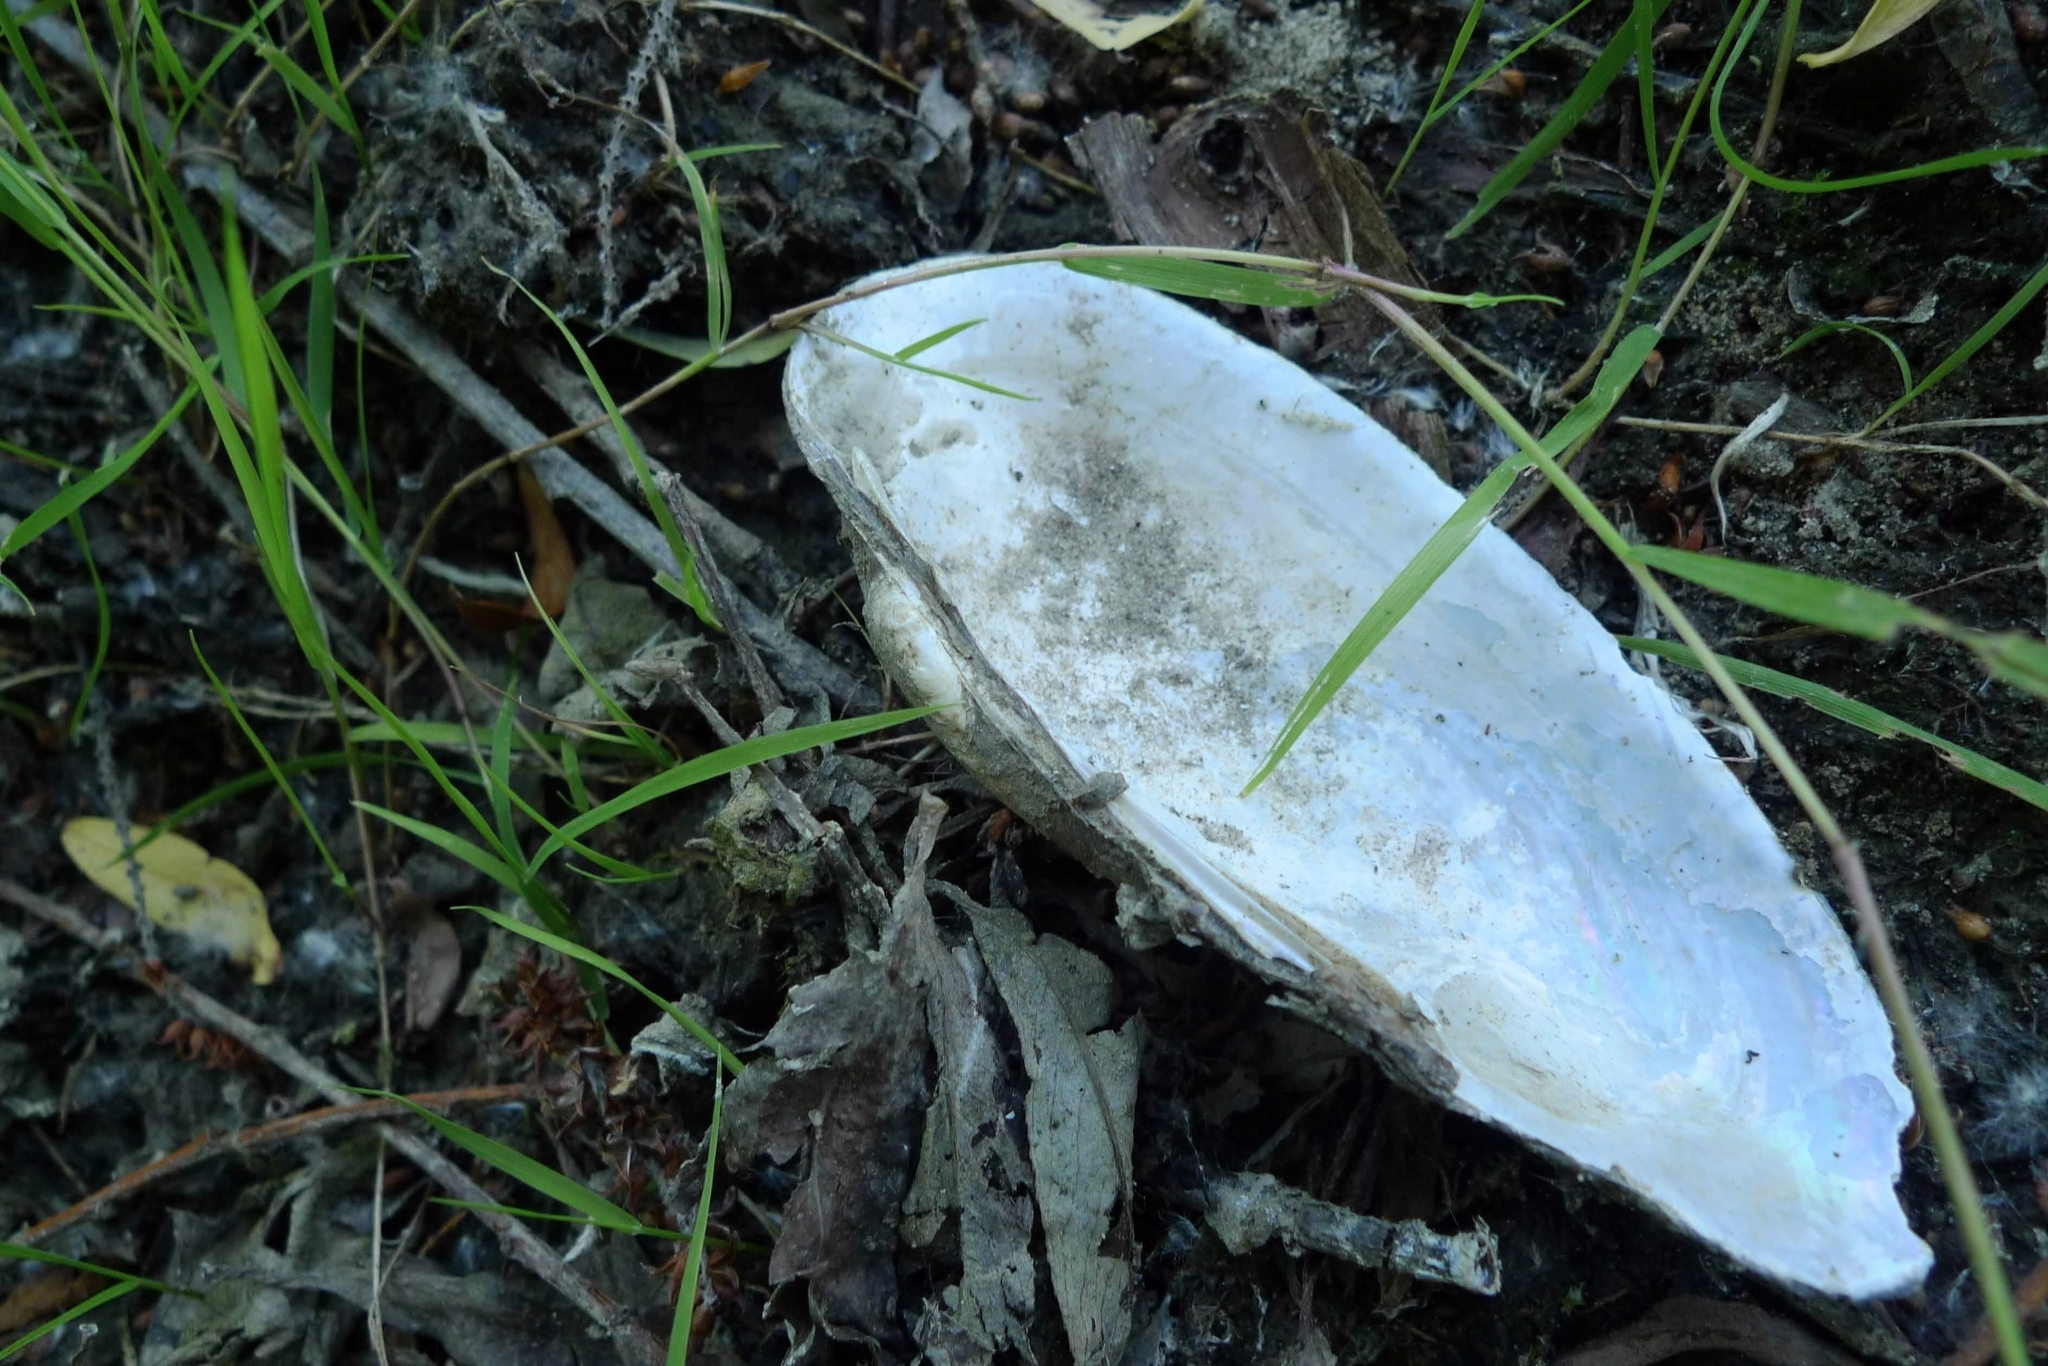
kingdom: Animalia
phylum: Mollusca
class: Bivalvia
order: Unionida
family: Unionidae
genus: Unio
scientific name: Unio pictorum
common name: Painter's mussel
